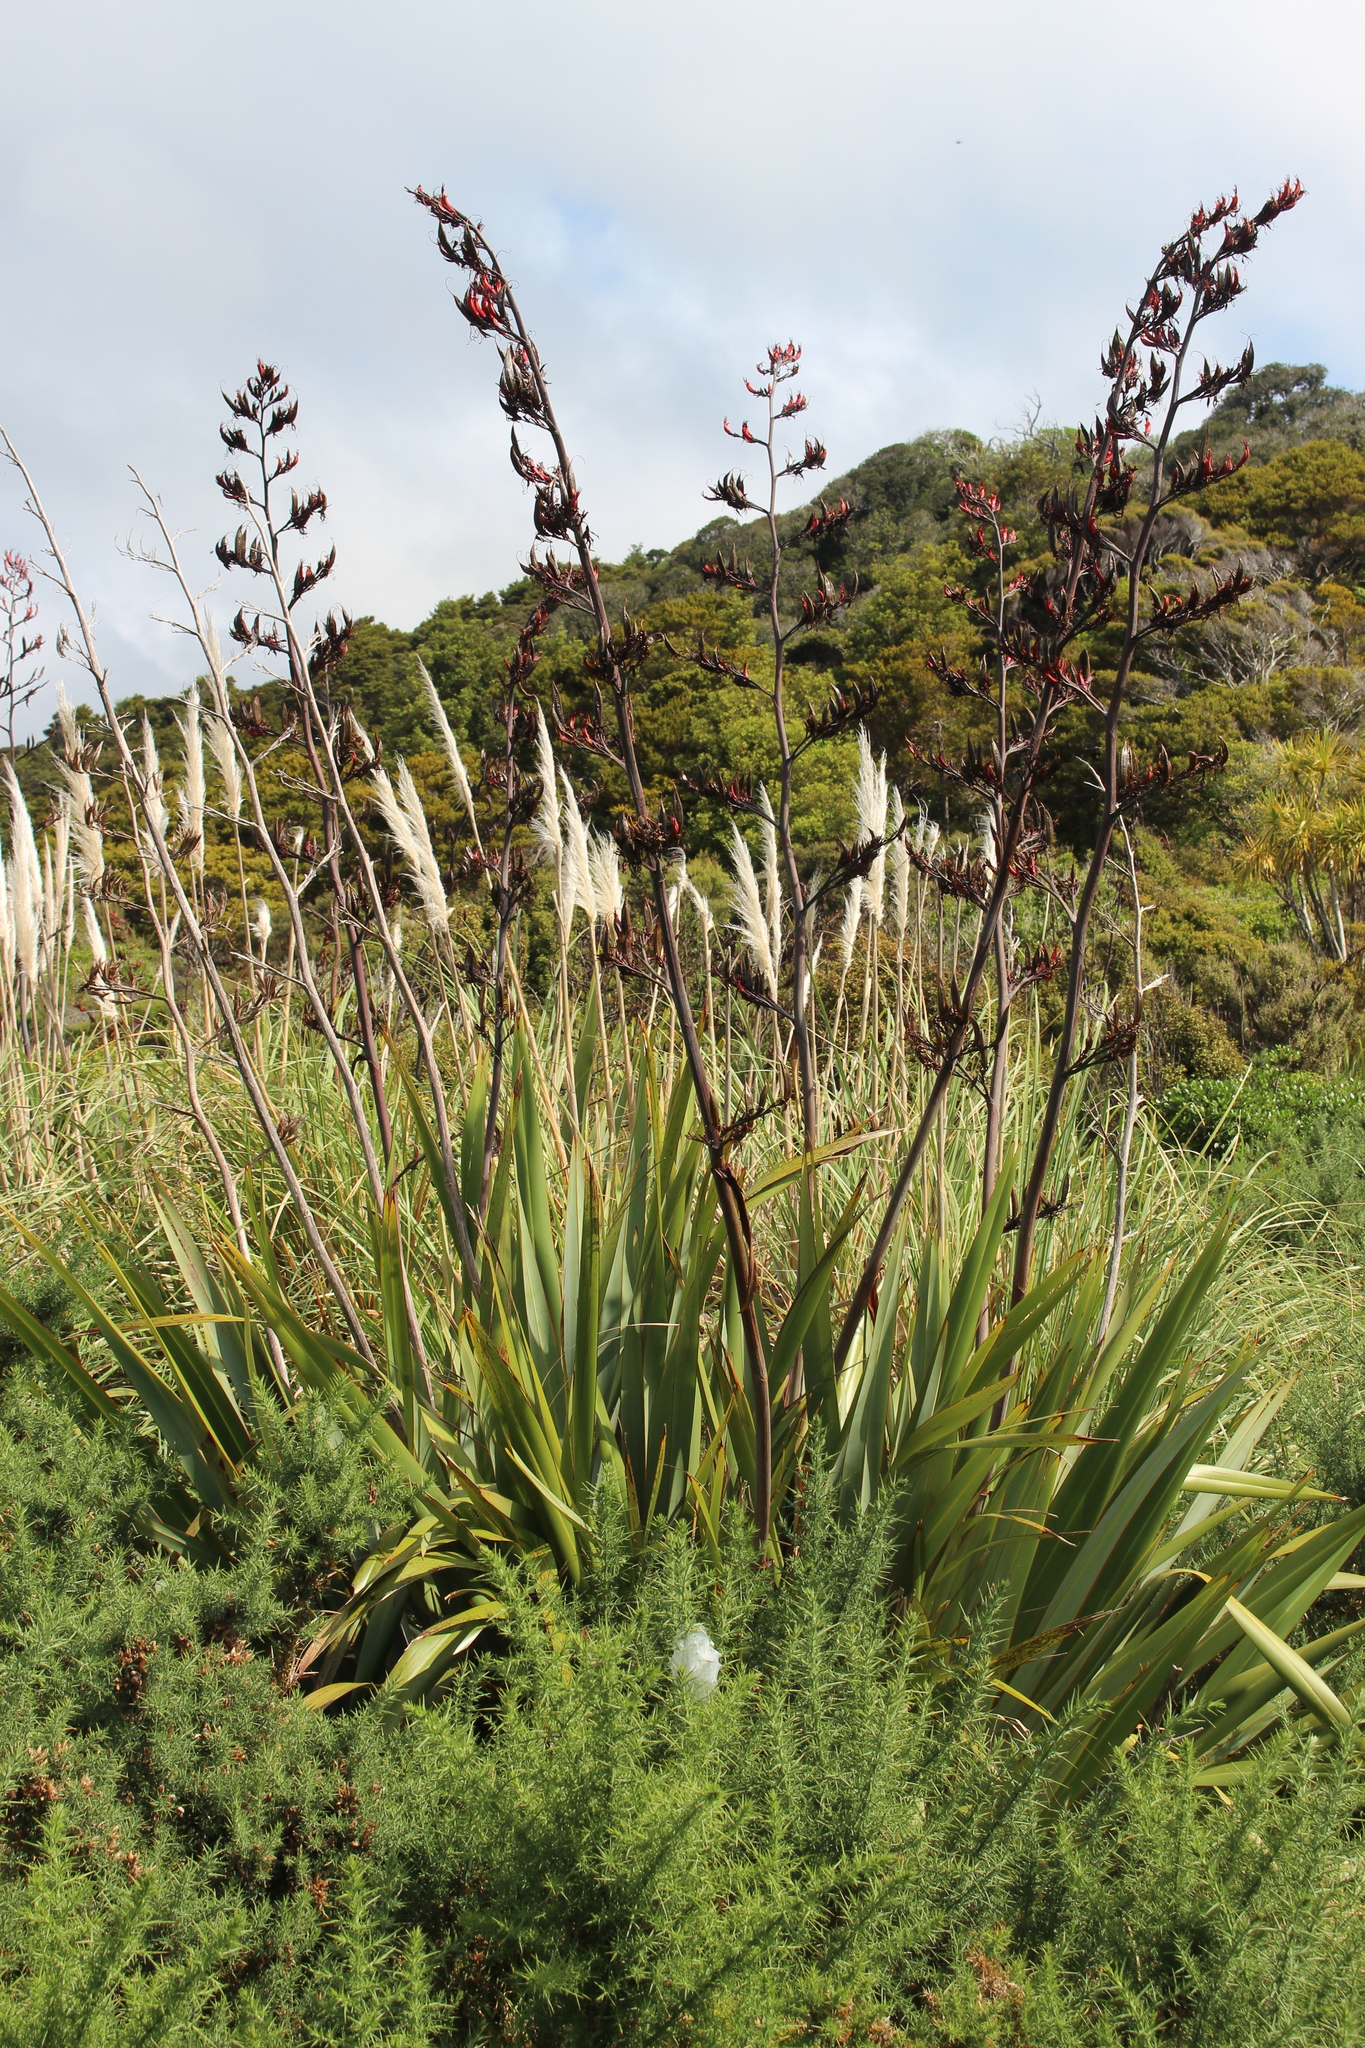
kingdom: Plantae
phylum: Tracheophyta
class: Liliopsida
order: Asparagales
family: Asphodelaceae
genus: Phormium
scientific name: Phormium tenax
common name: New zealand flax
